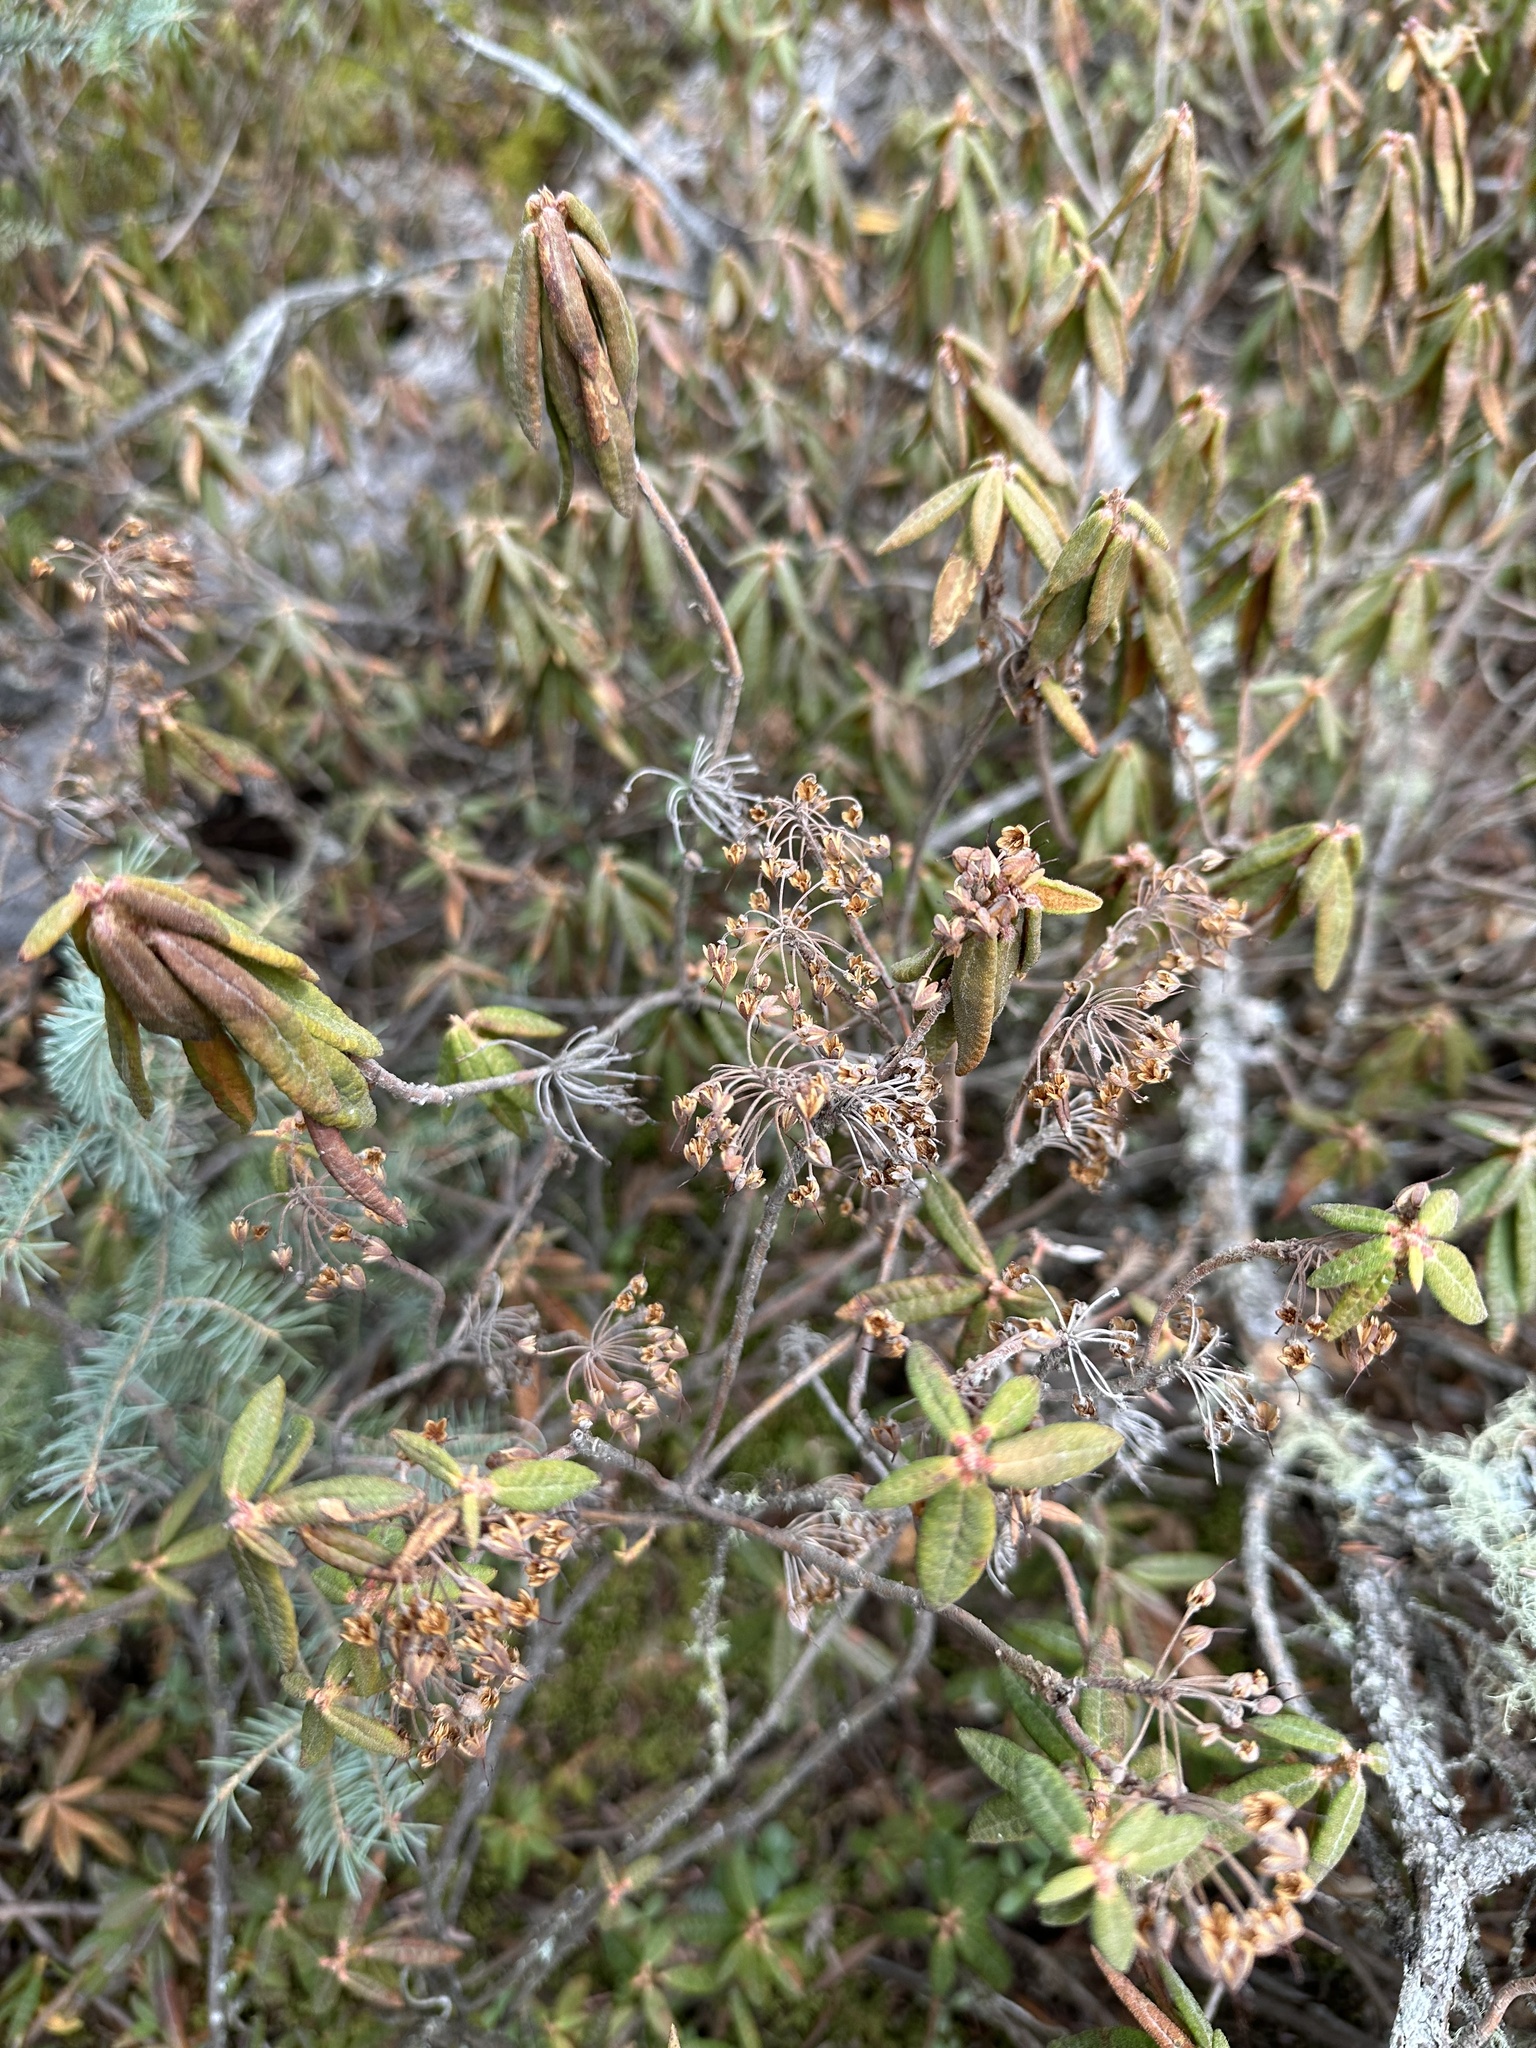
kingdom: Plantae
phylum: Tracheophyta
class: Magnoliopsida
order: Ericales
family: Ericaceae
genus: Rhododendron
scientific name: Rhododendron groenlandicum
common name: Bog labrador tea
